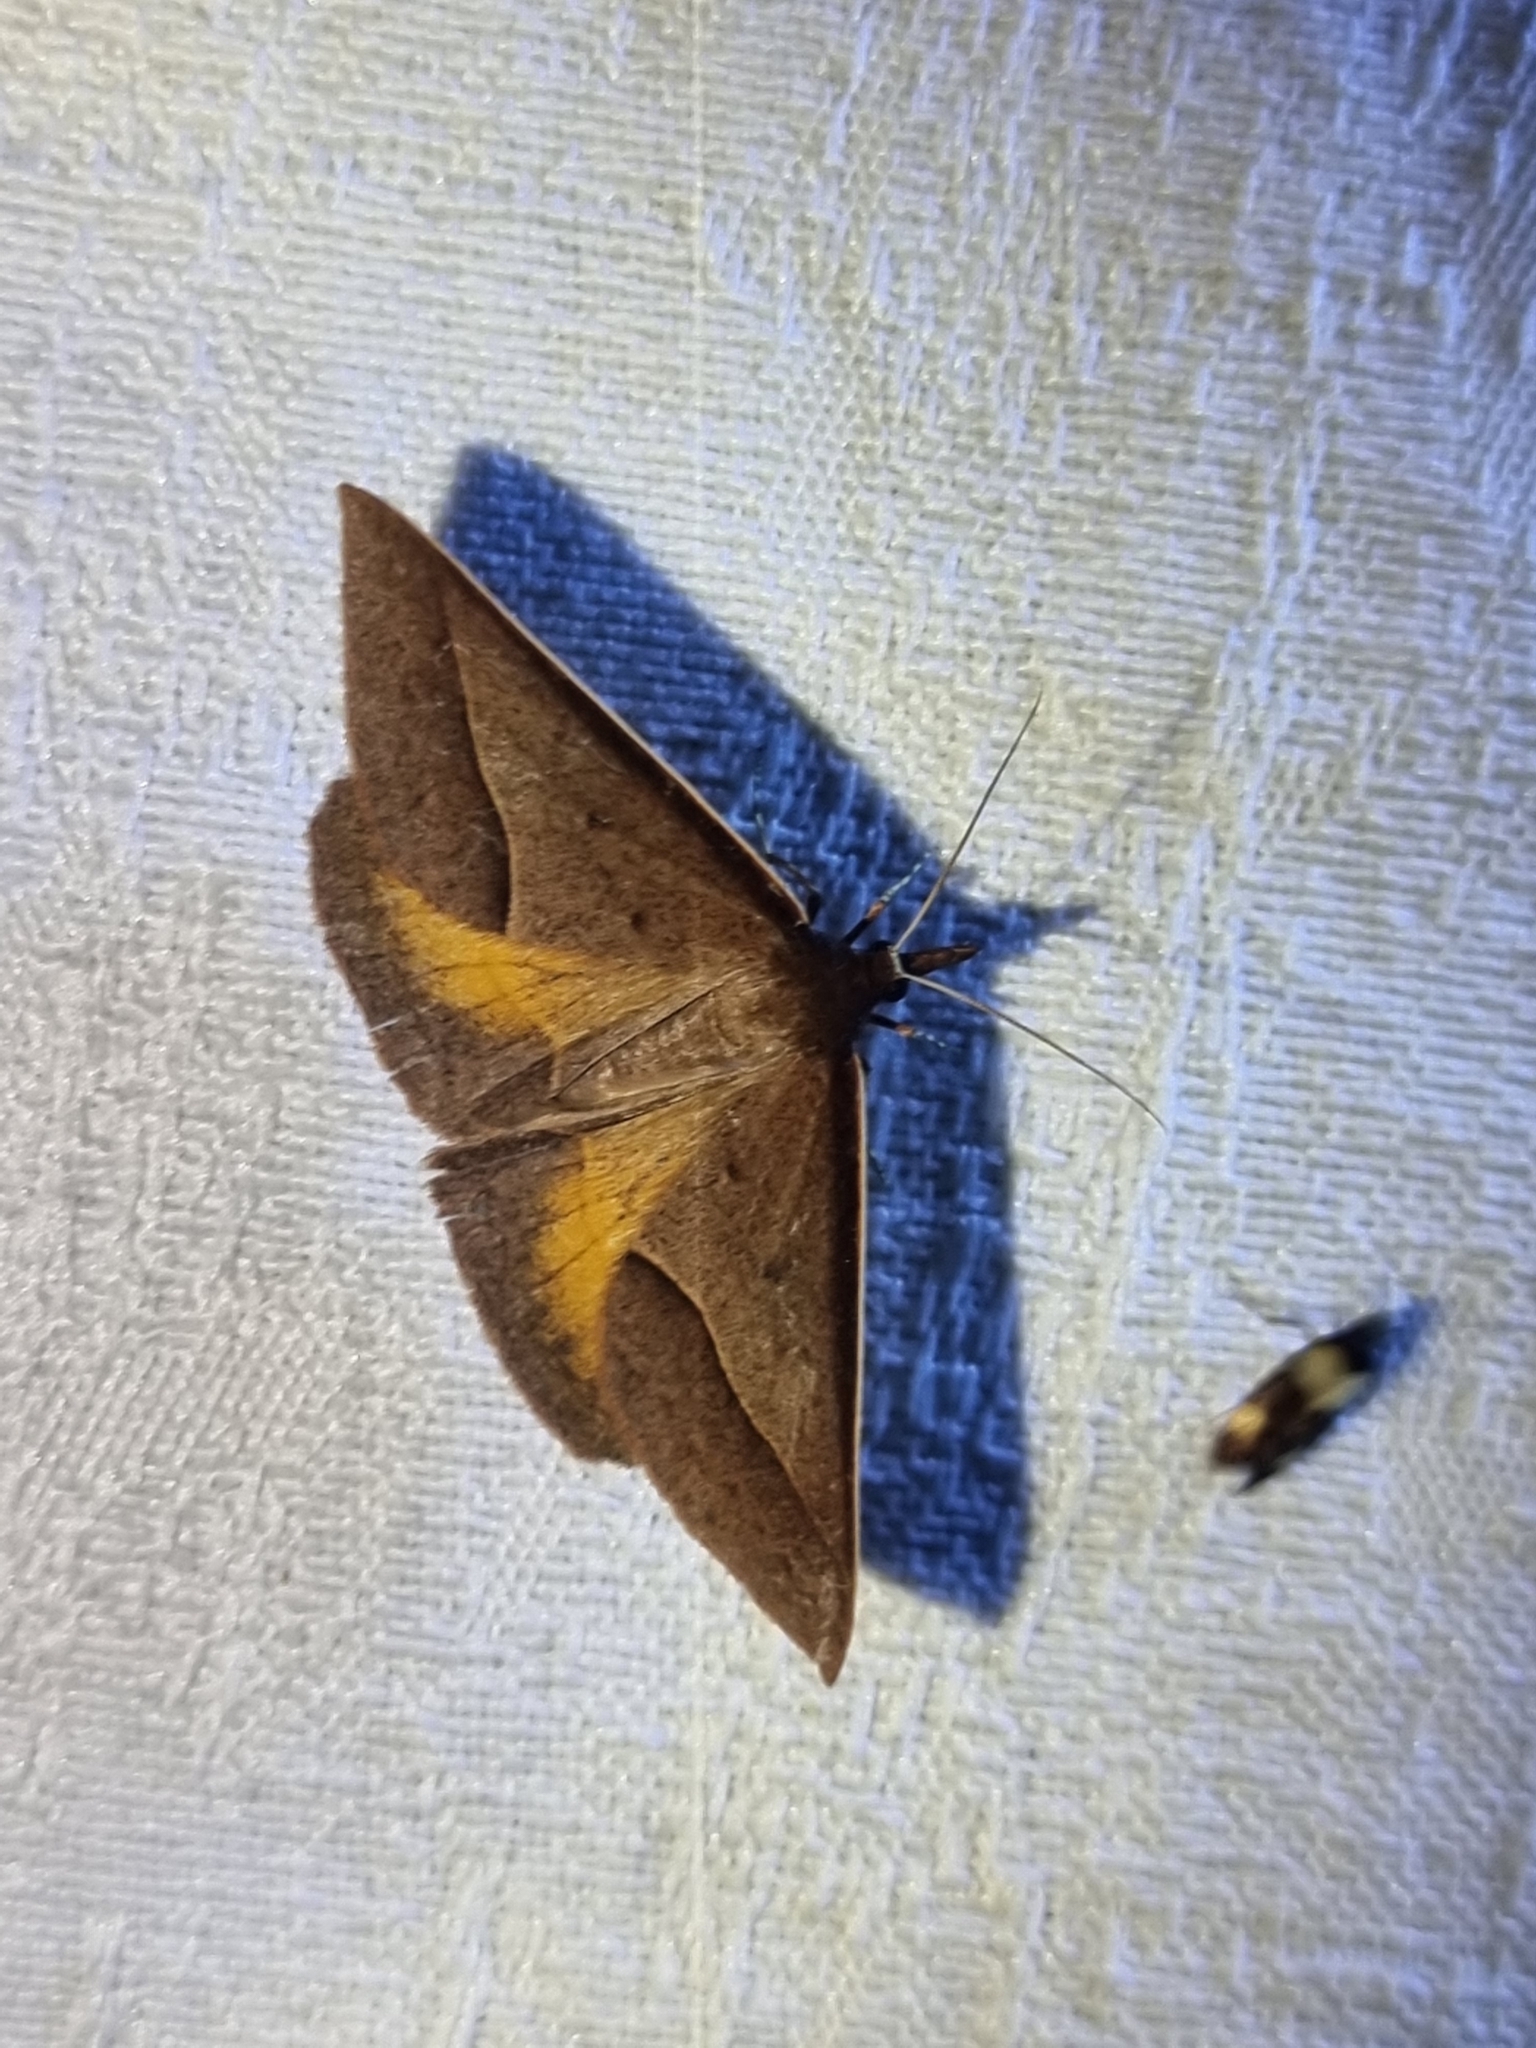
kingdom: Animalia
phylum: Arthropoda
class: Insecta
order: Lepidoptera
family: Geometridae
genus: Epidesmia
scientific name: Epidesmia chilonaria
